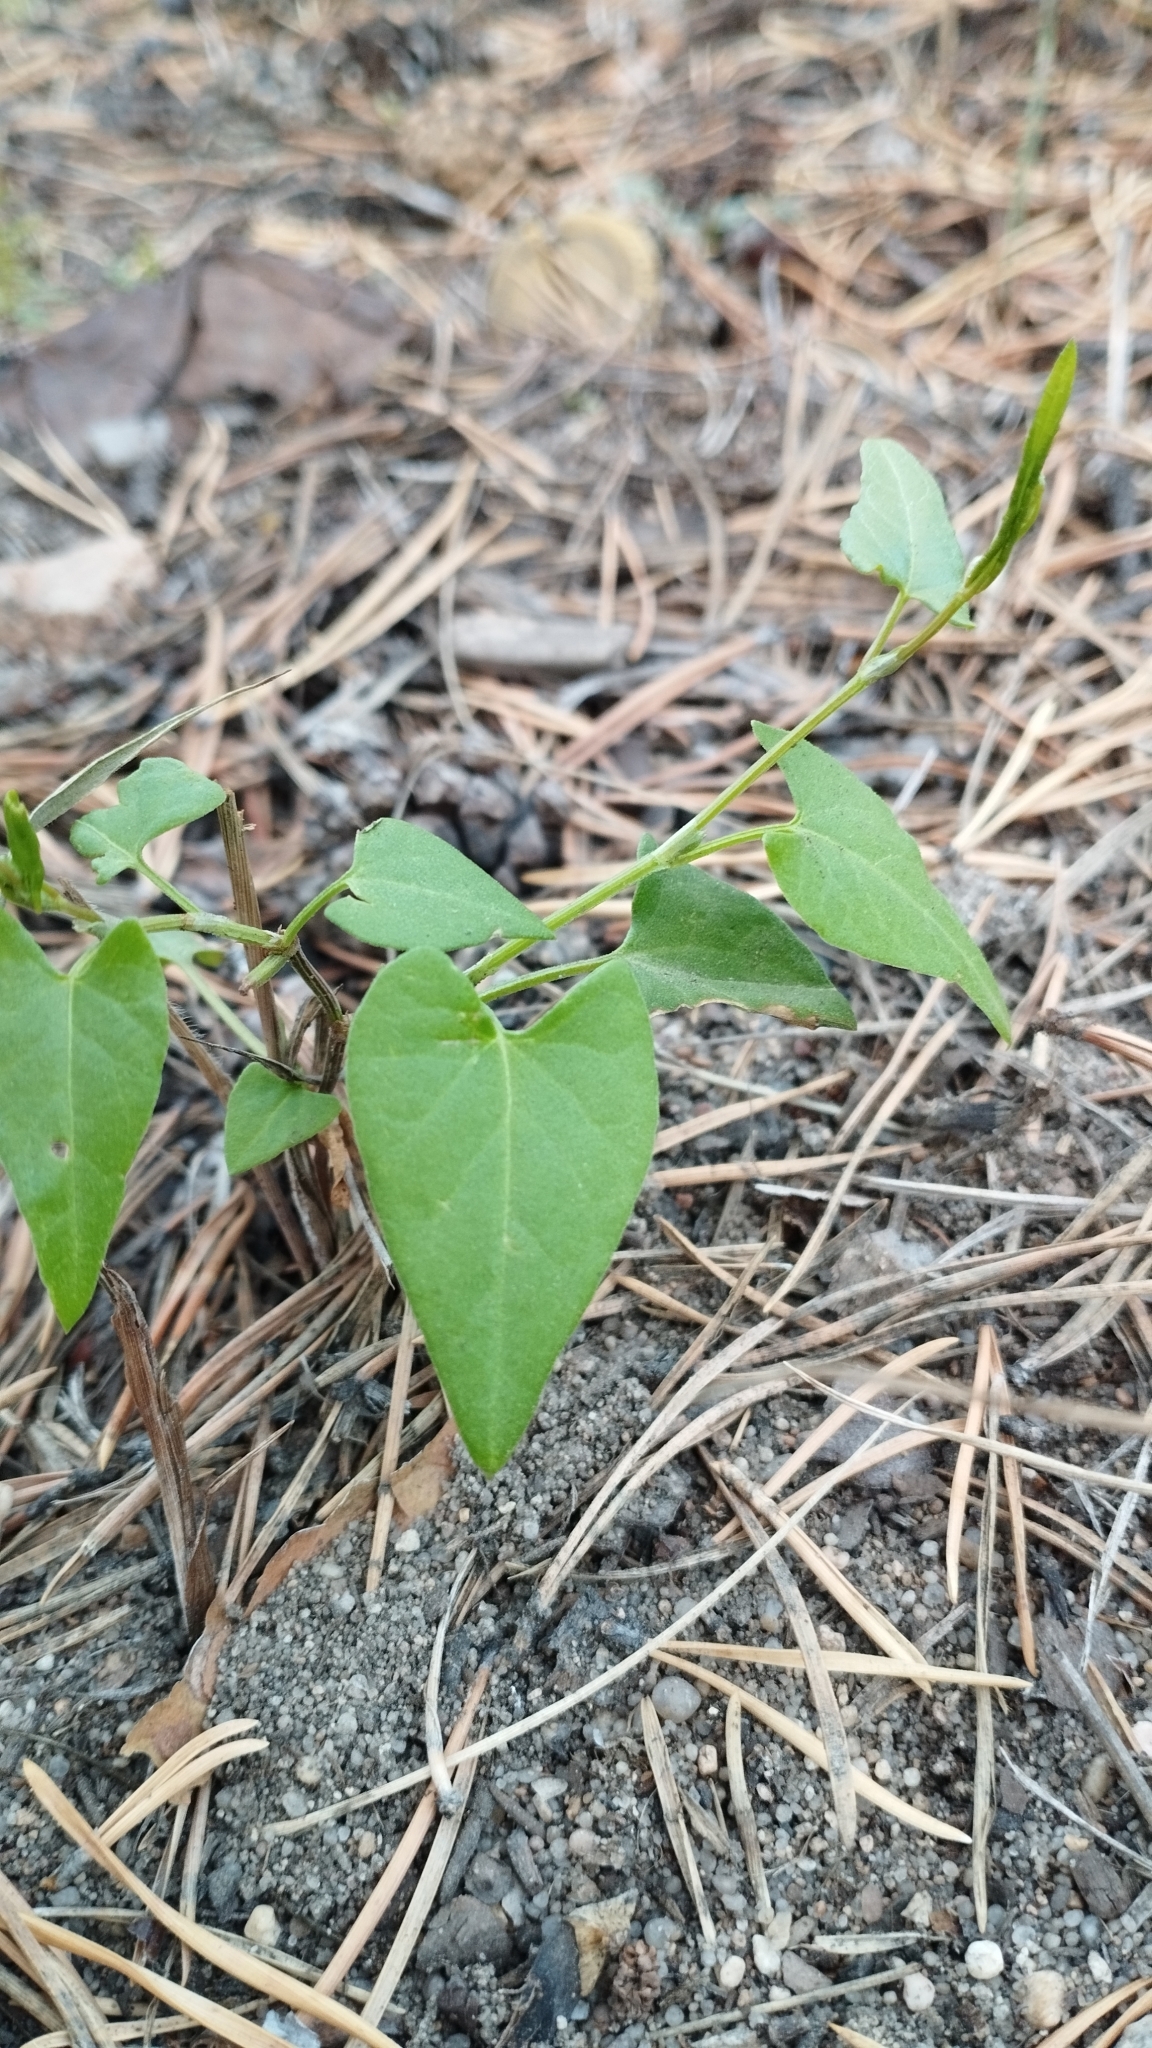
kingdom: Plantae
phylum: Tracheophyta
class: Magnoliopsida
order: Caryophyllales
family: Polygonaceae
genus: Fallopia
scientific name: Fallopia convolvulus
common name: Black bindweed
